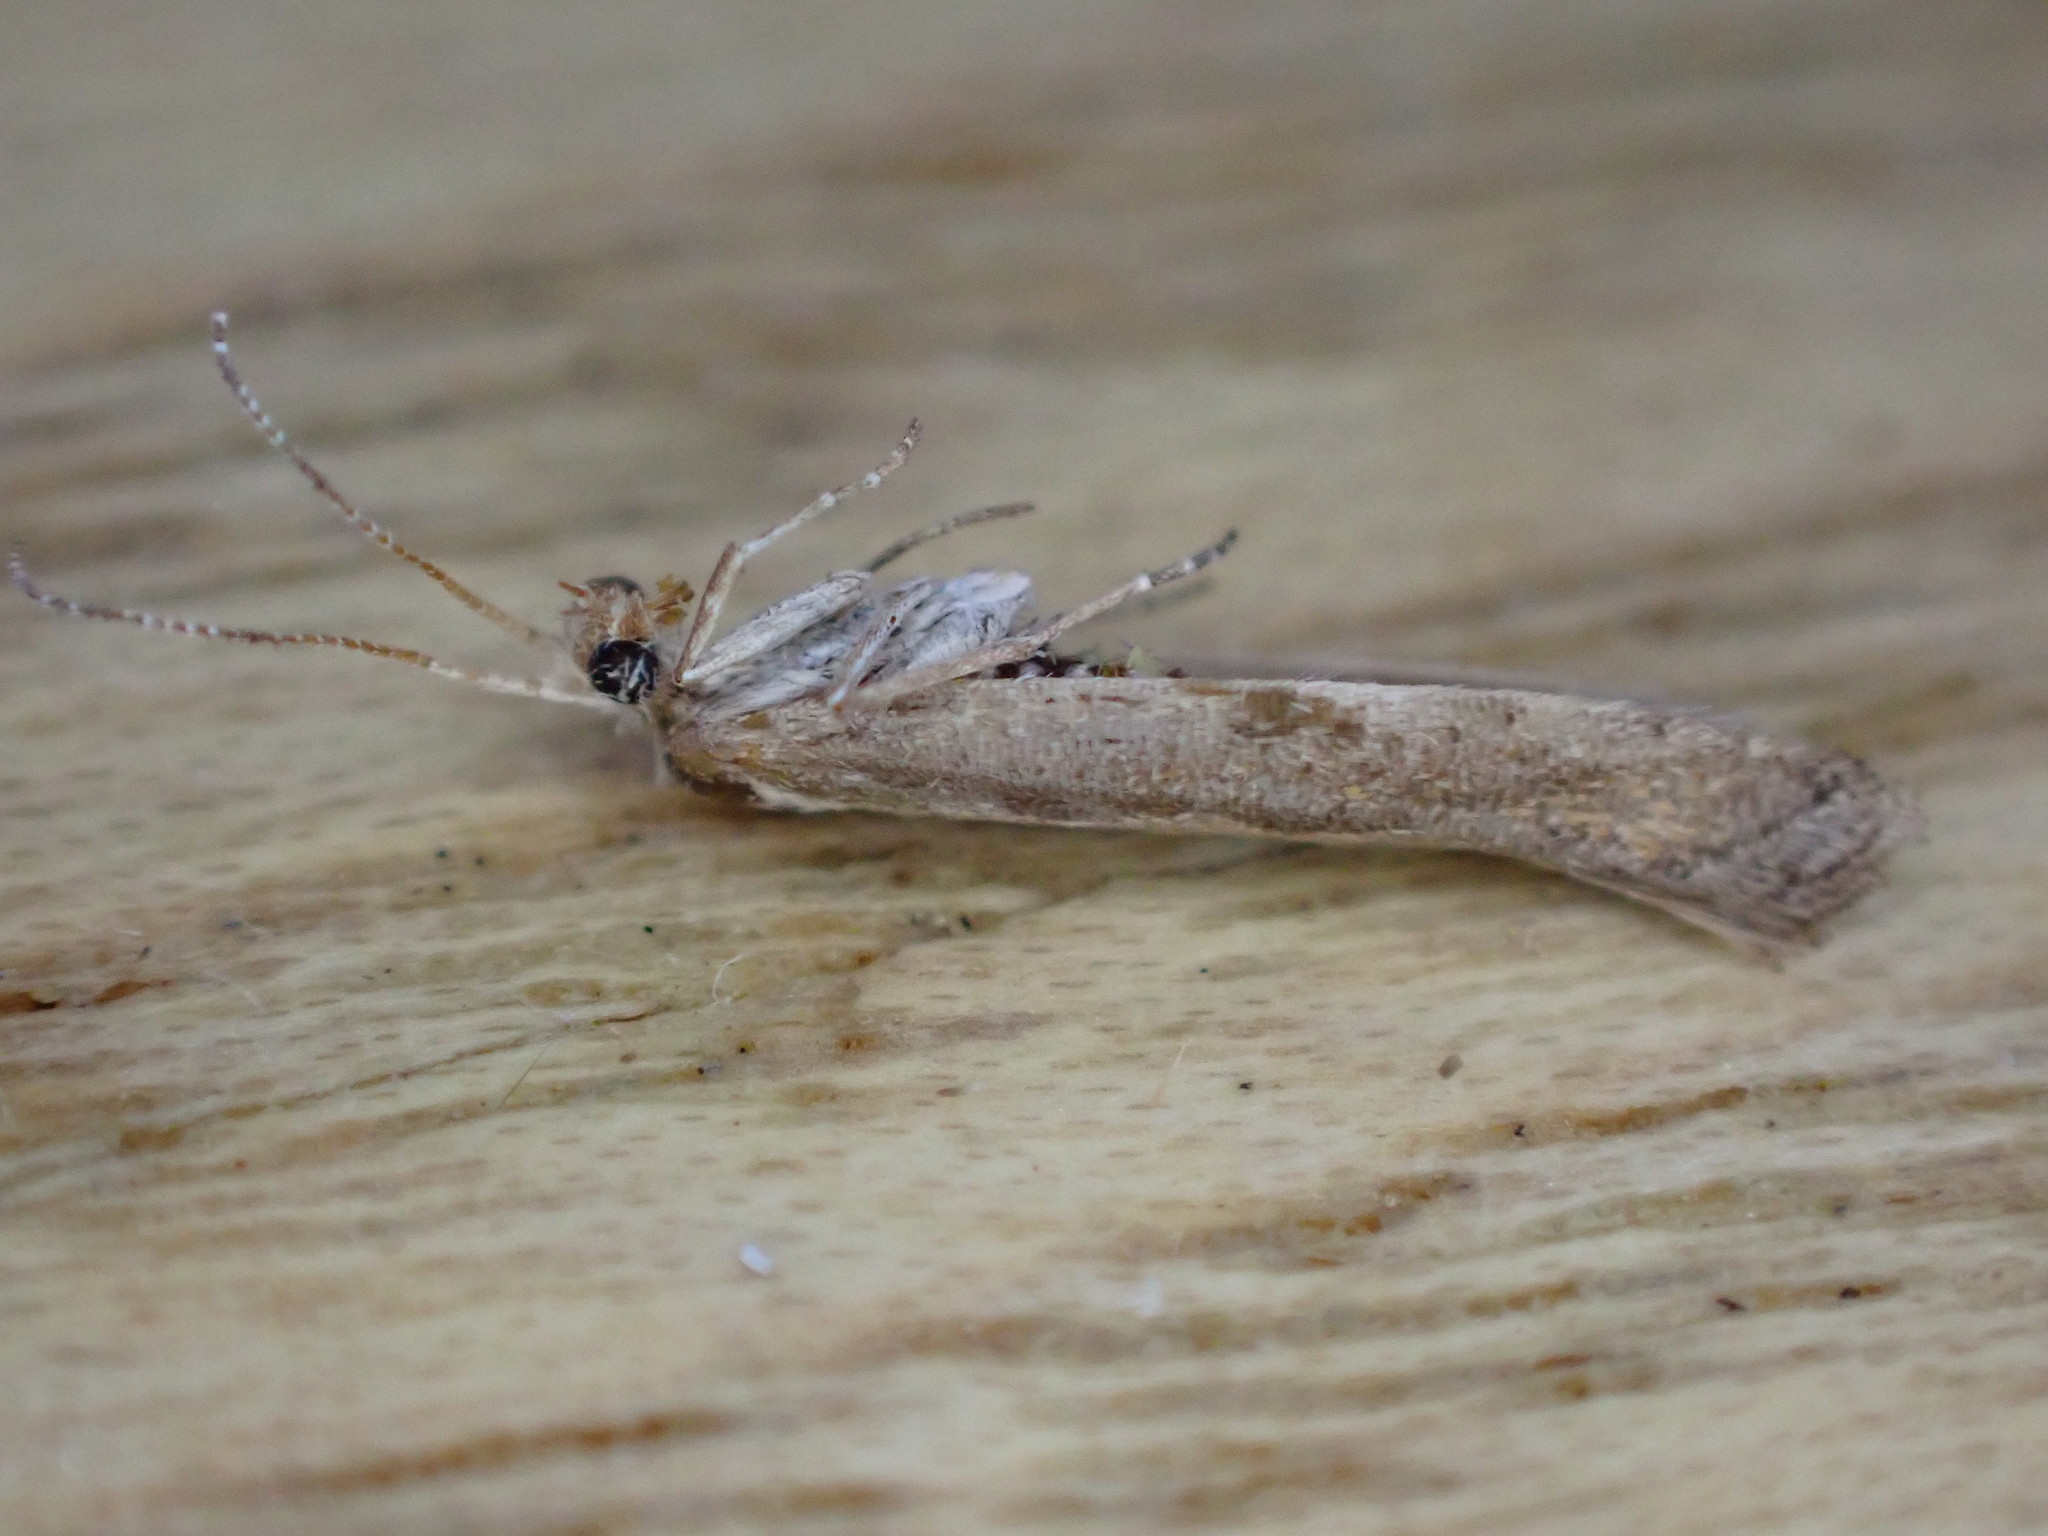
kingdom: Animalia
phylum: Arthropoda
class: Insecta
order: Lepidoptera
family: Plutellidae
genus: Plutella
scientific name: Plutella xylostella
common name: Diamond-back moth
